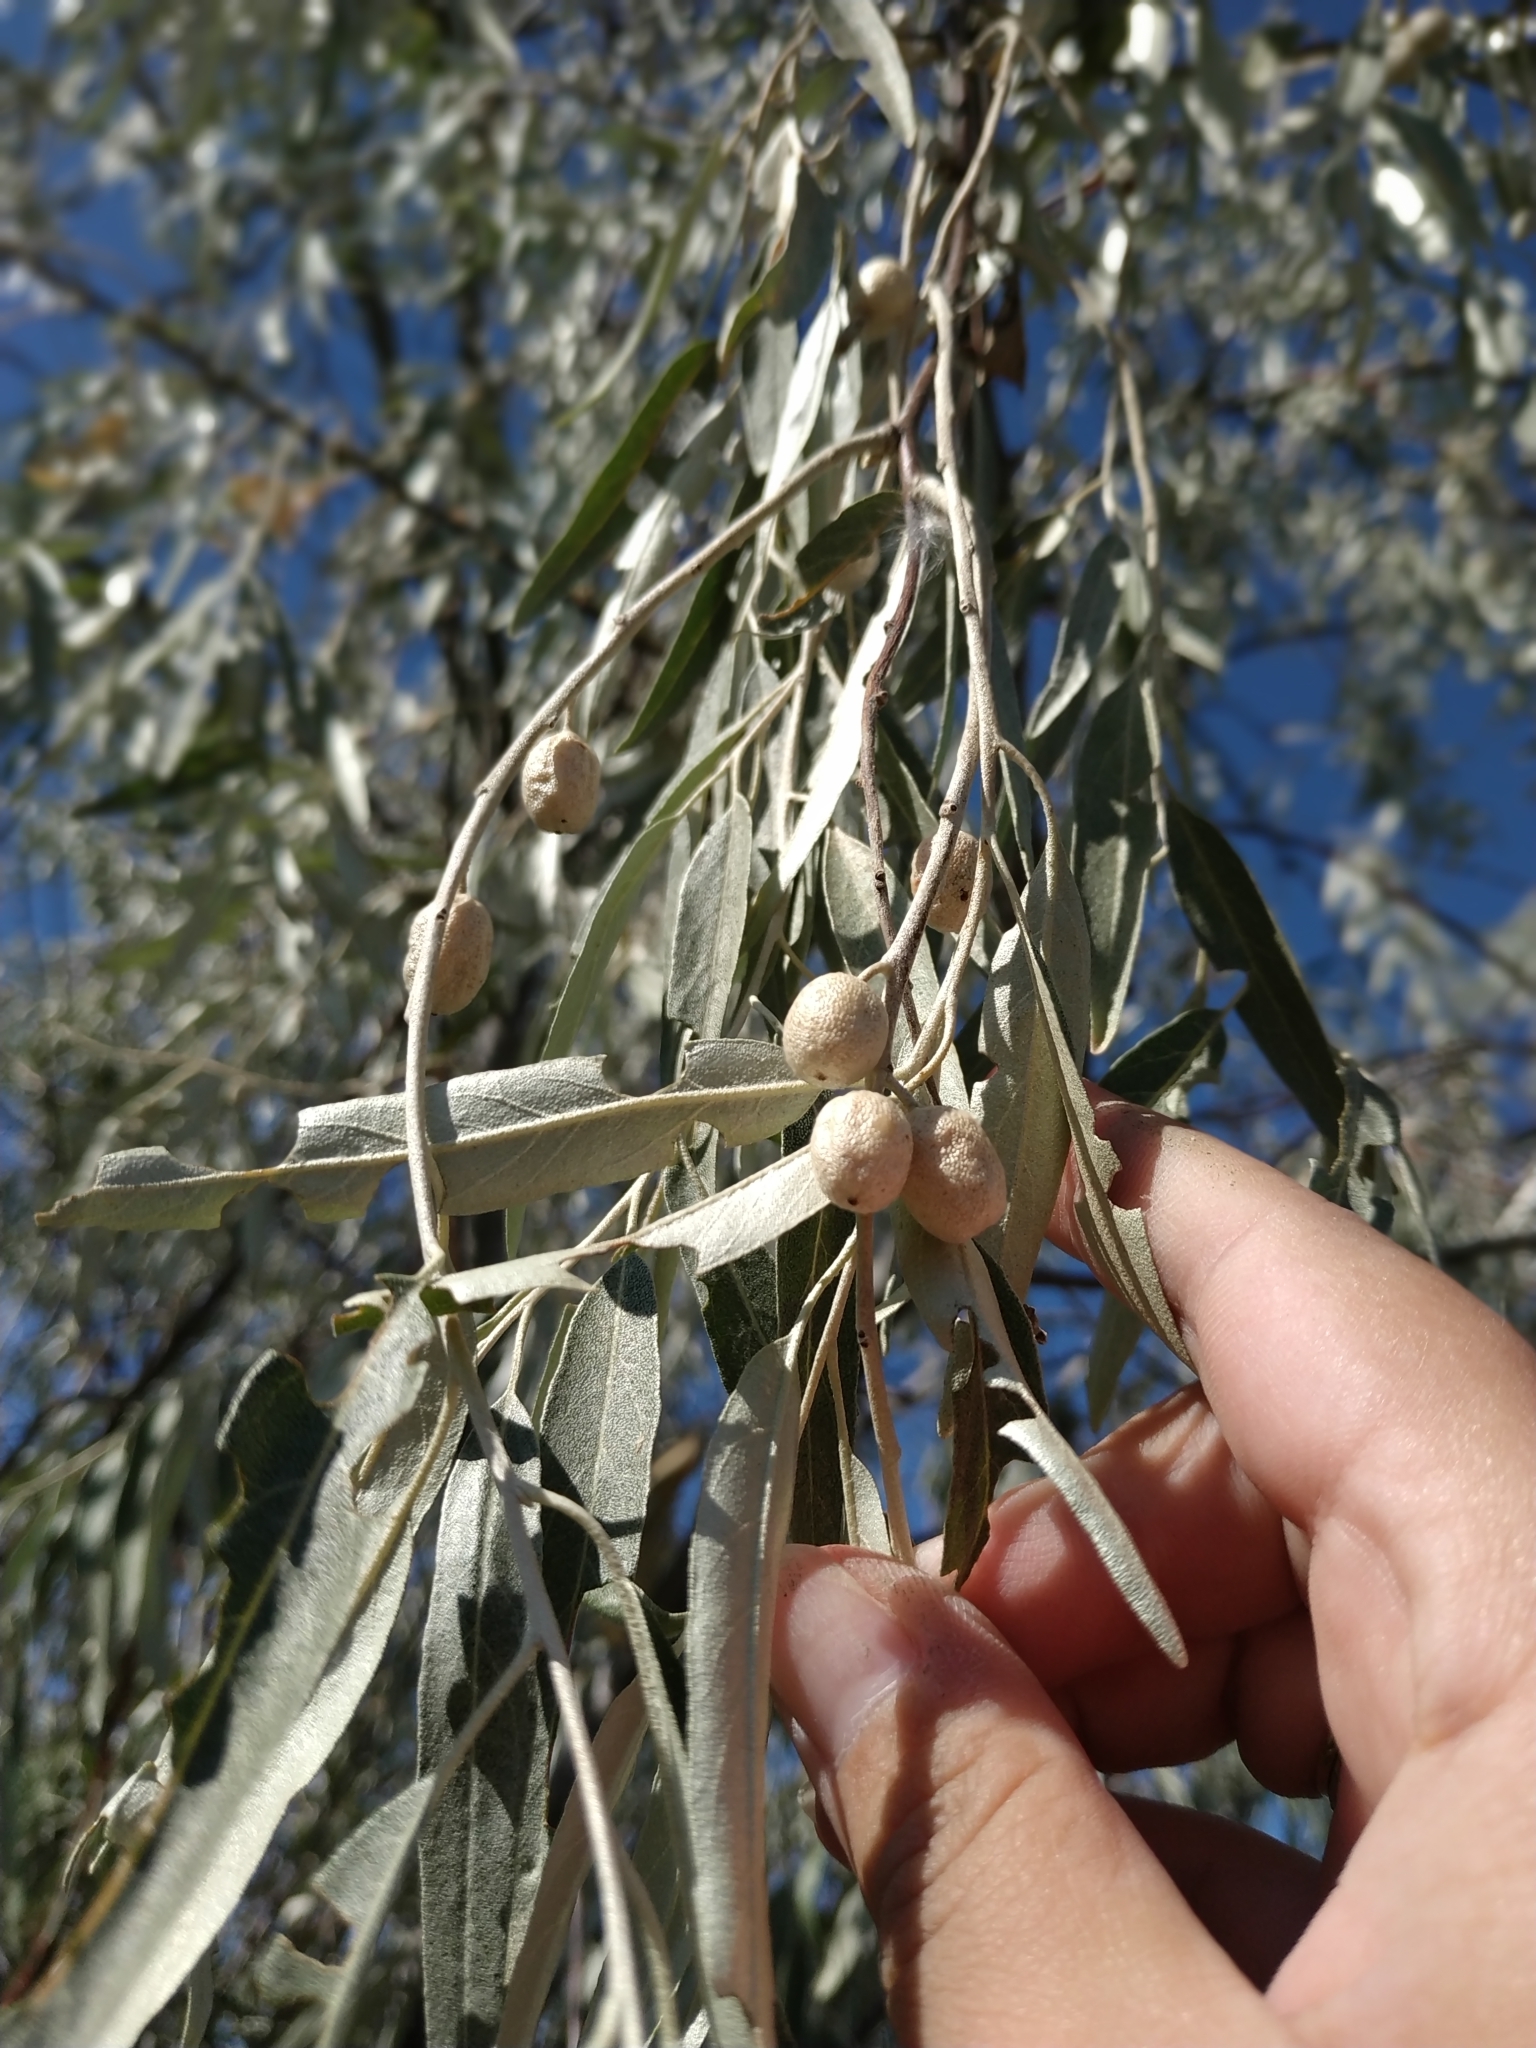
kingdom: Plantae
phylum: Tracheophyta
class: Magnoliopsida
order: Rosales
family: Elaeagnaceae
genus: Elaeagnus
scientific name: Elaeagnus angustifolia
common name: Russian olive
